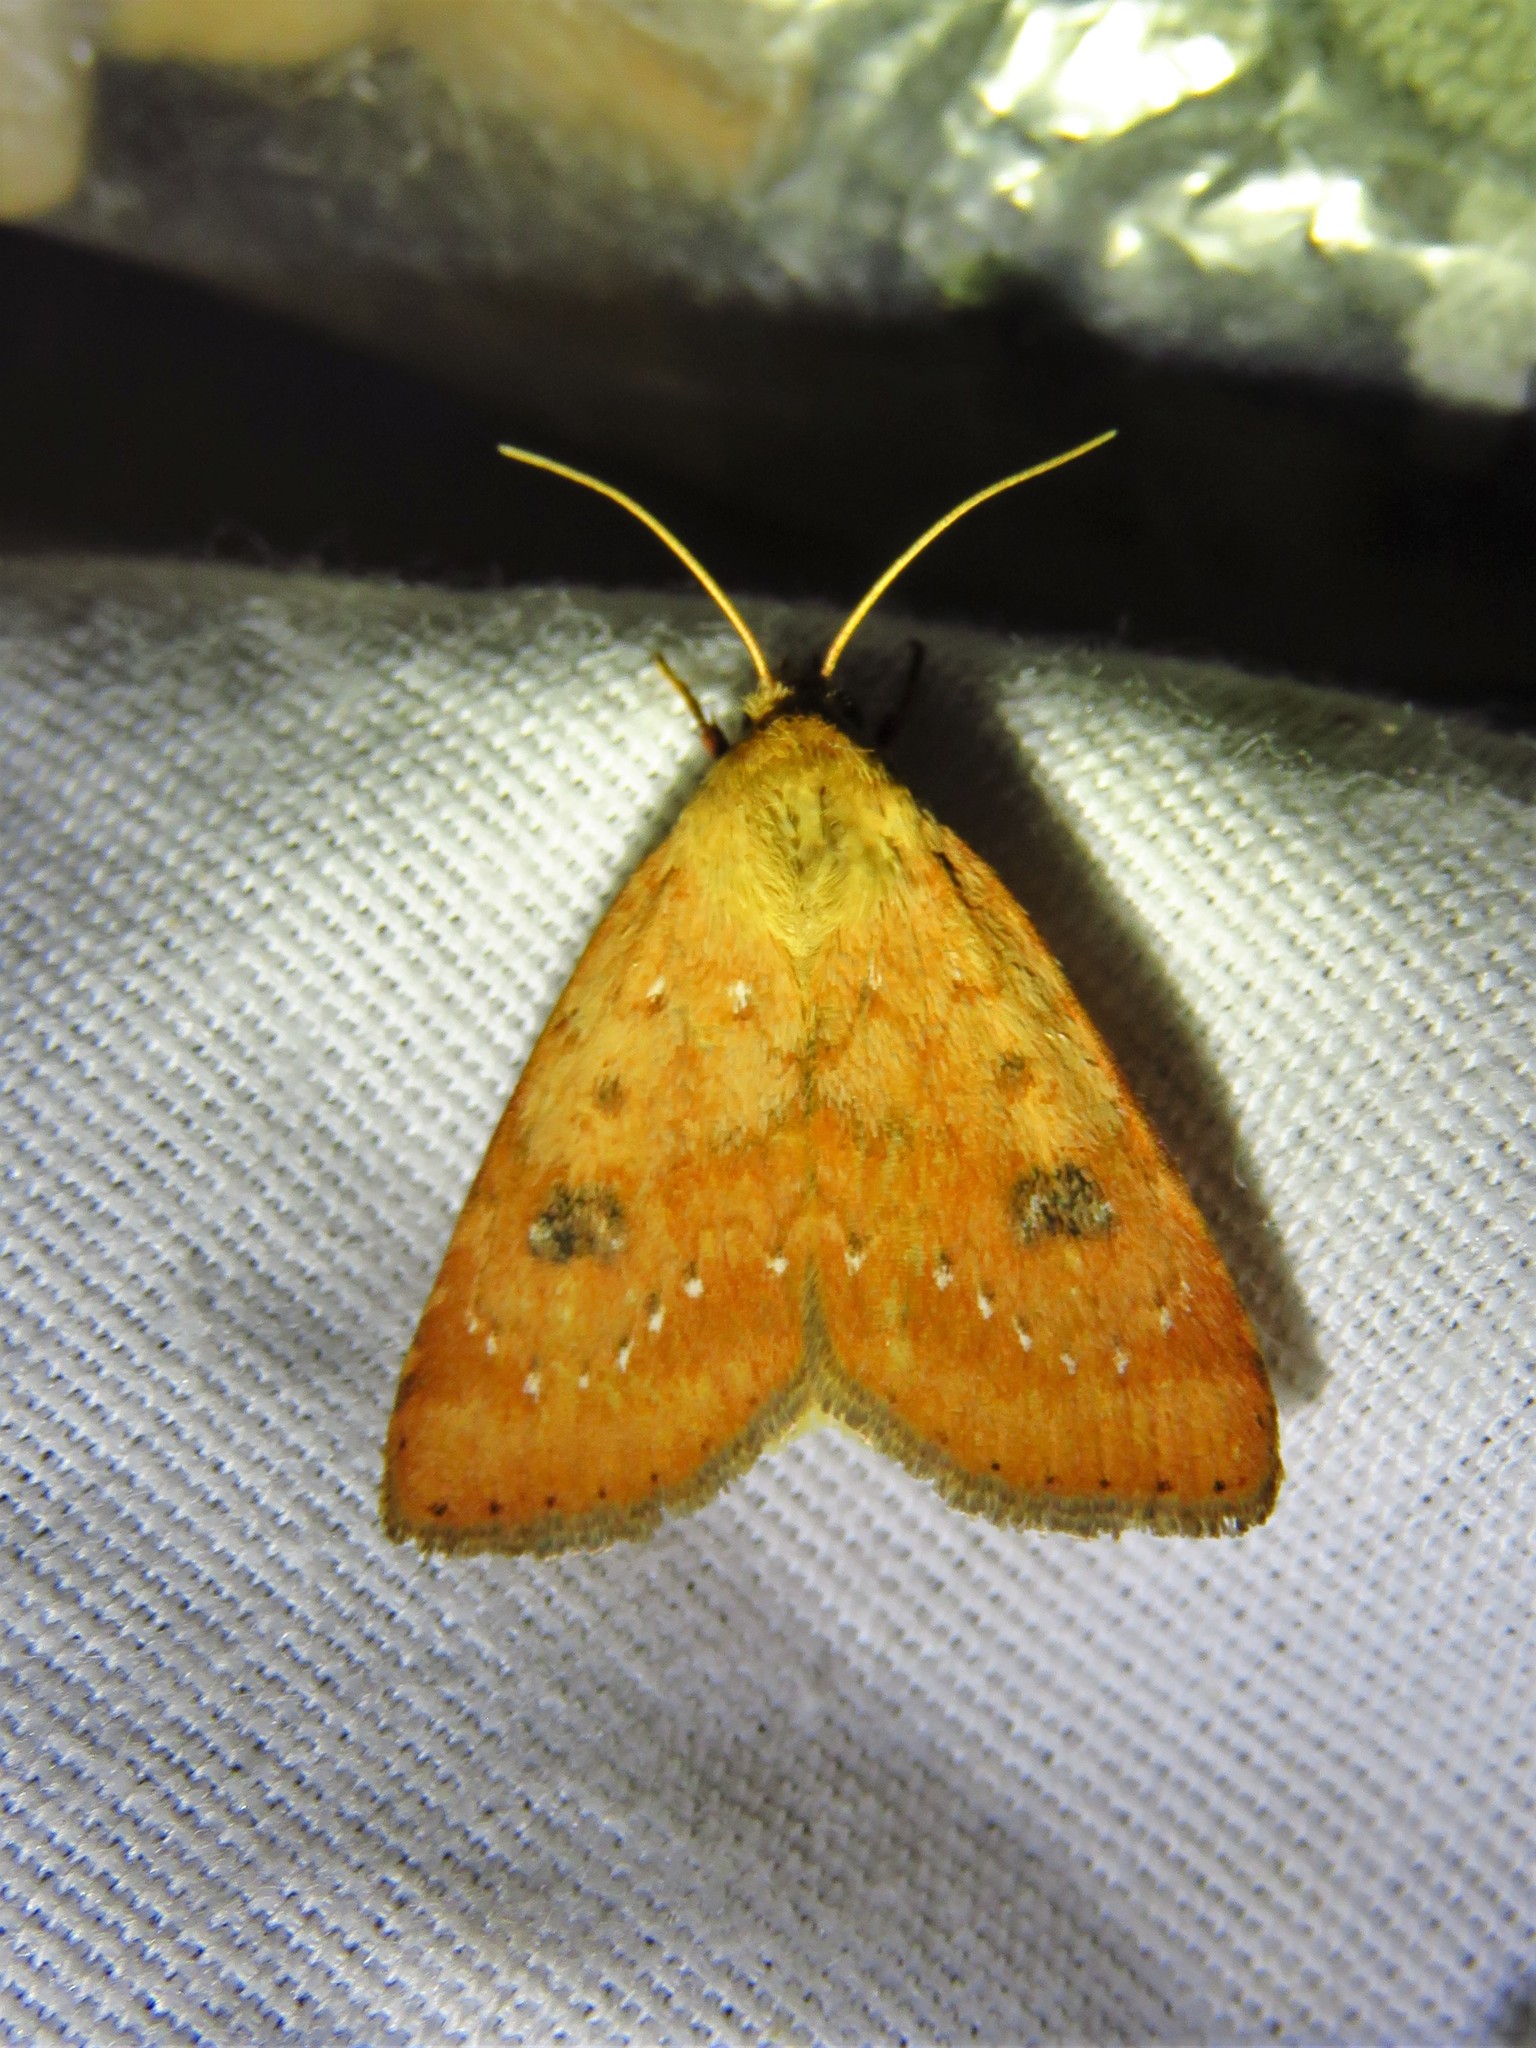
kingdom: Animalia
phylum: Arthropoda
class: Insecta
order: Lepidoptera
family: Noctuidae
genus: Heliocheilus
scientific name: Heliocheilus lupata
